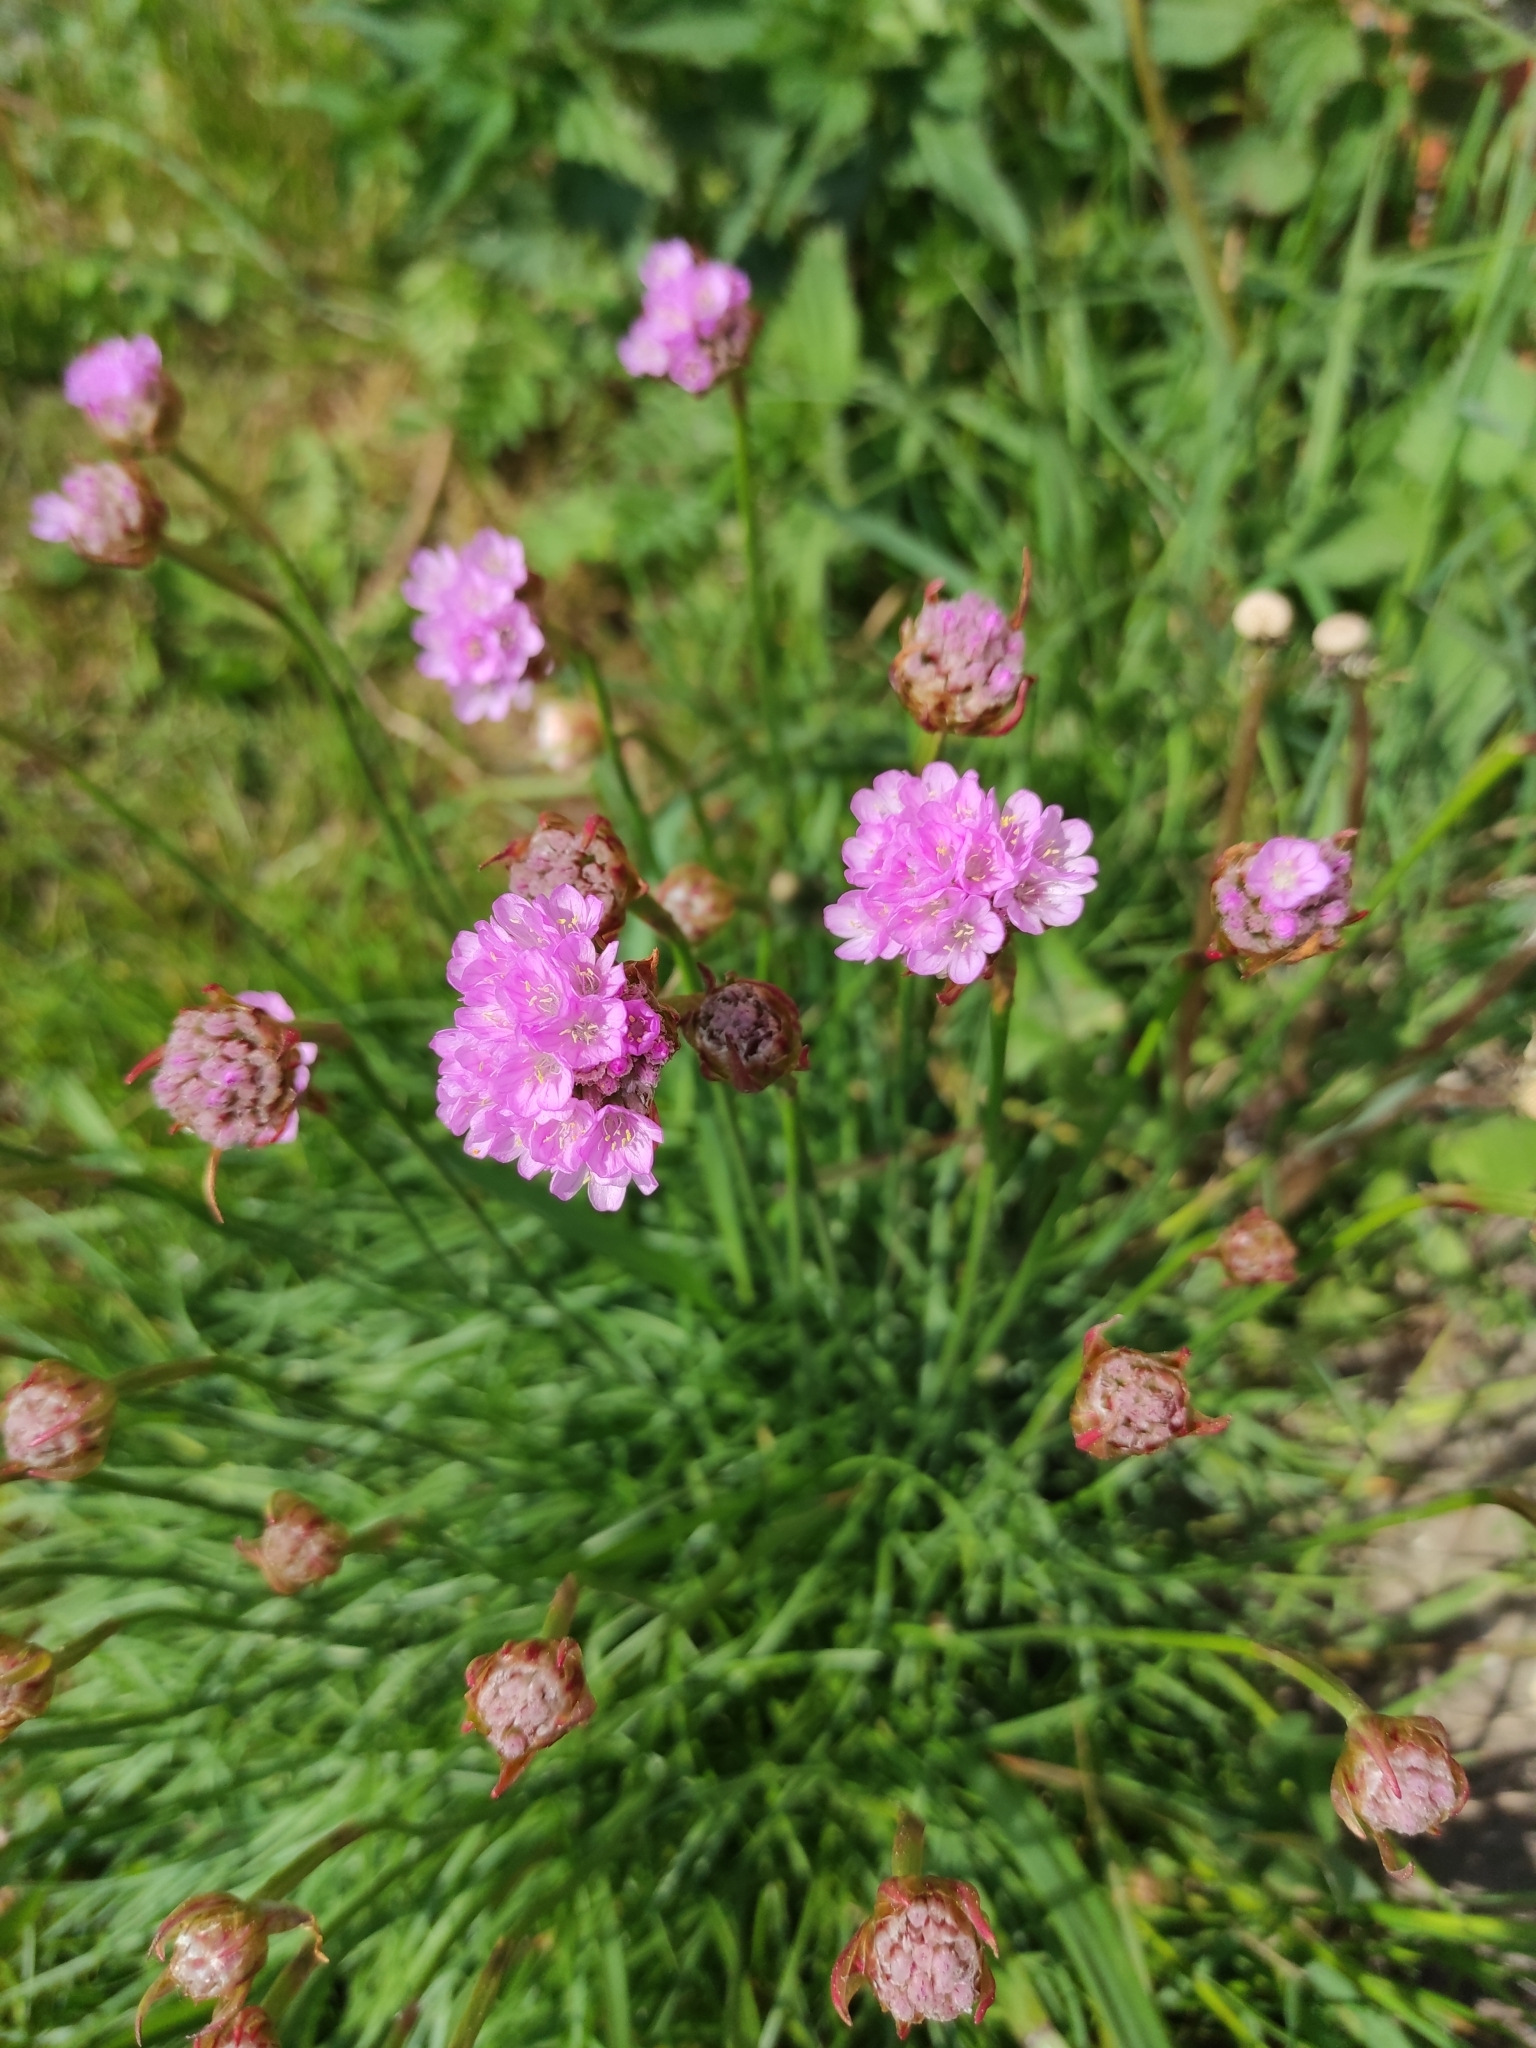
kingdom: Plantae
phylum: Tracheophyta
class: Magnoliopsida
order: Caryophyllales
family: Plumbaginaceae
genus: Armeria
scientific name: Armeria maritima
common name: Thrift
